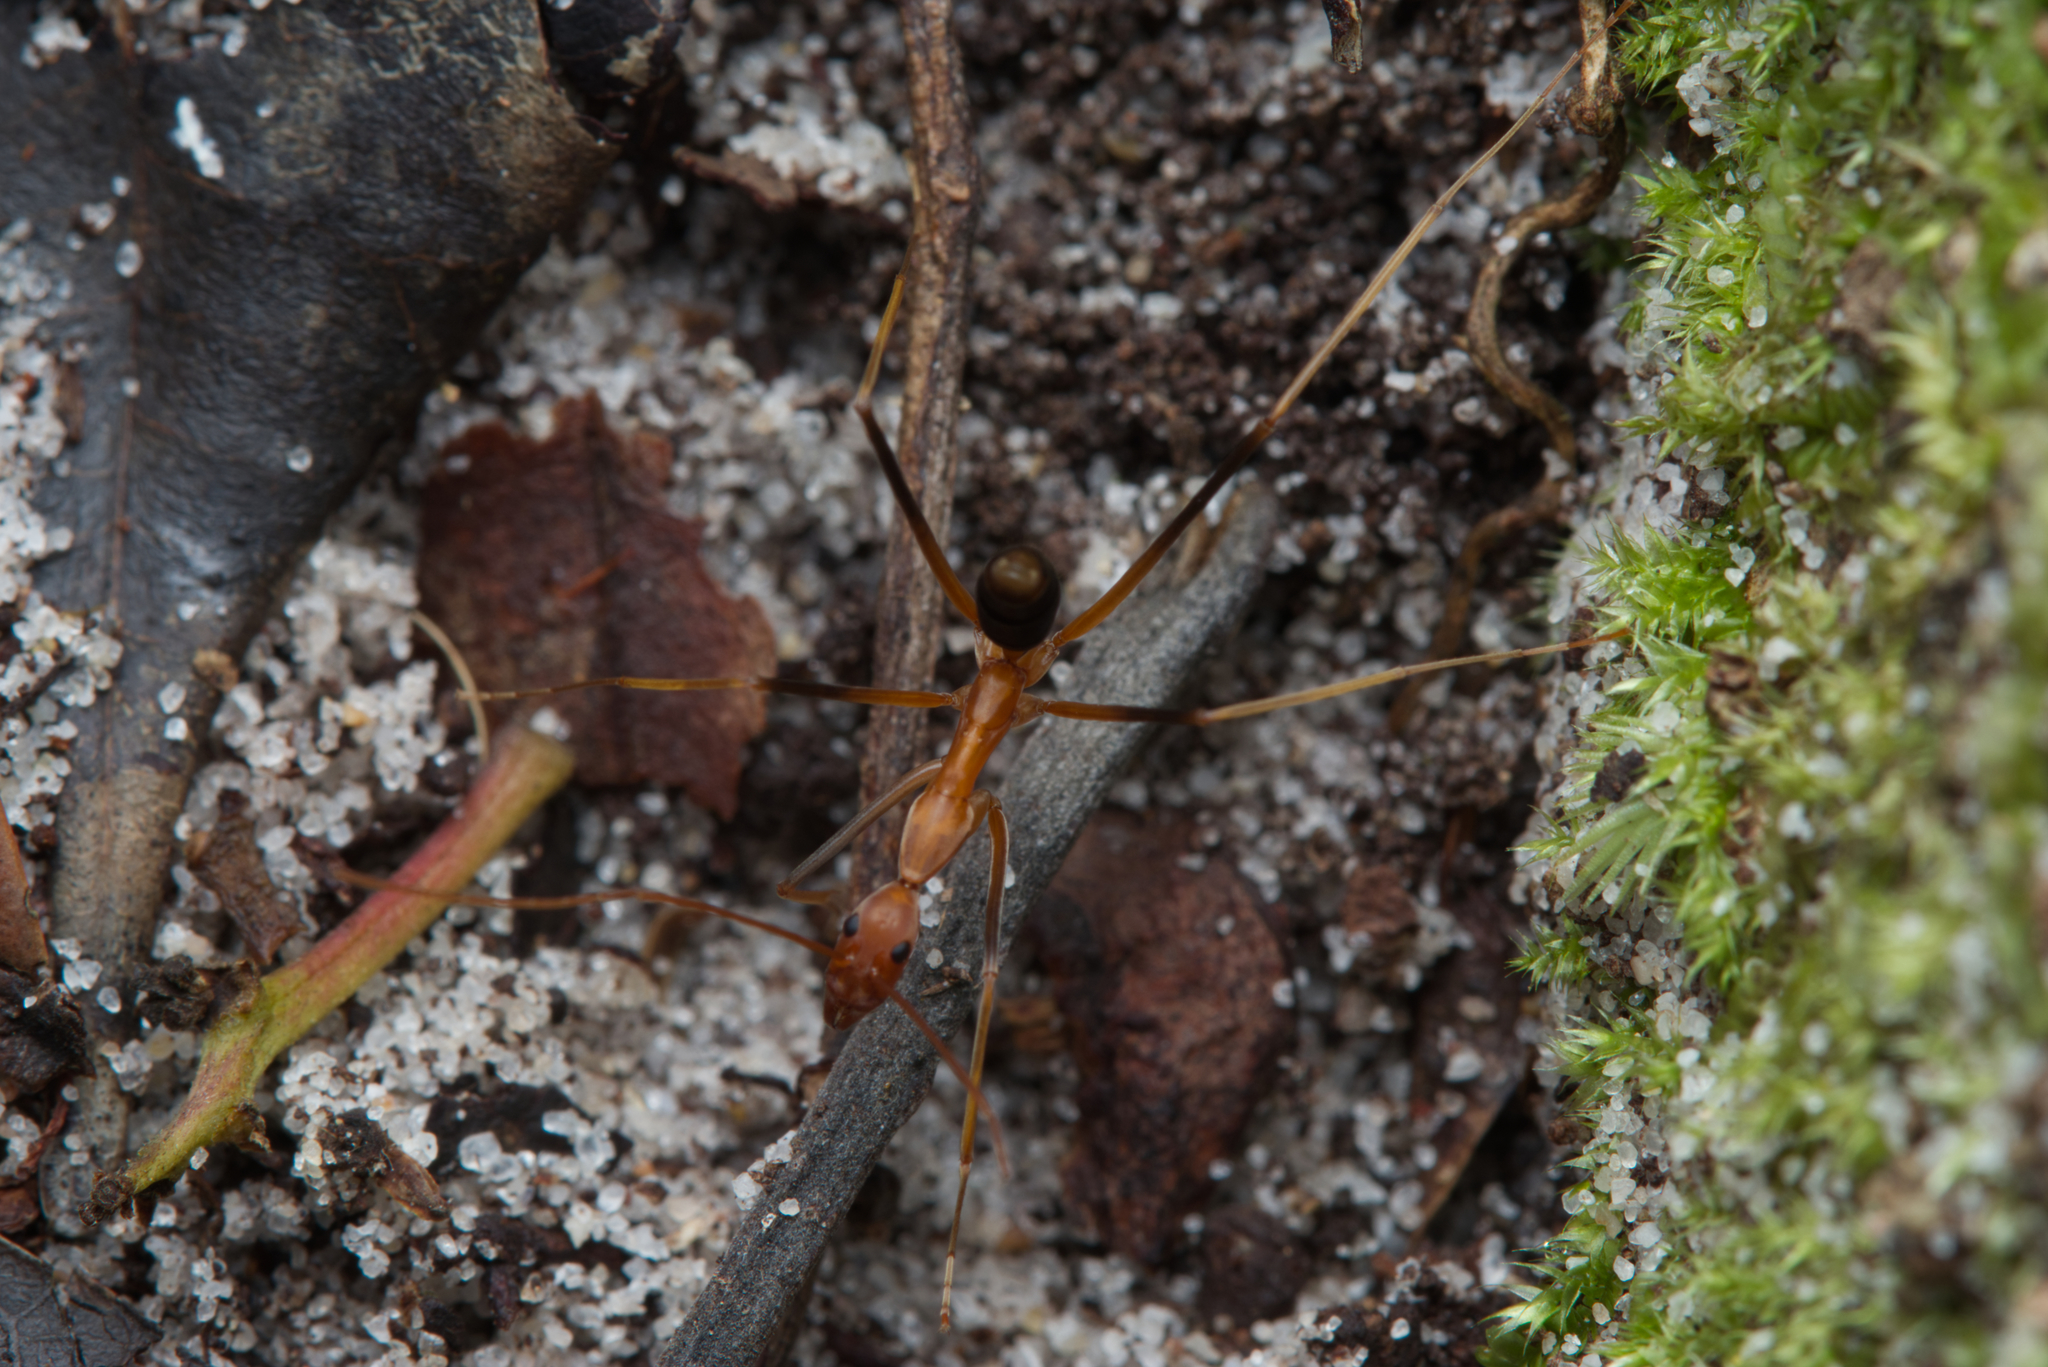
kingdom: Animalia
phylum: Arthropoda
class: Insecta
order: Hymenoptera
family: Formicidae
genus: Leptomyrmex
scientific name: Leptomyrmex rufipes
